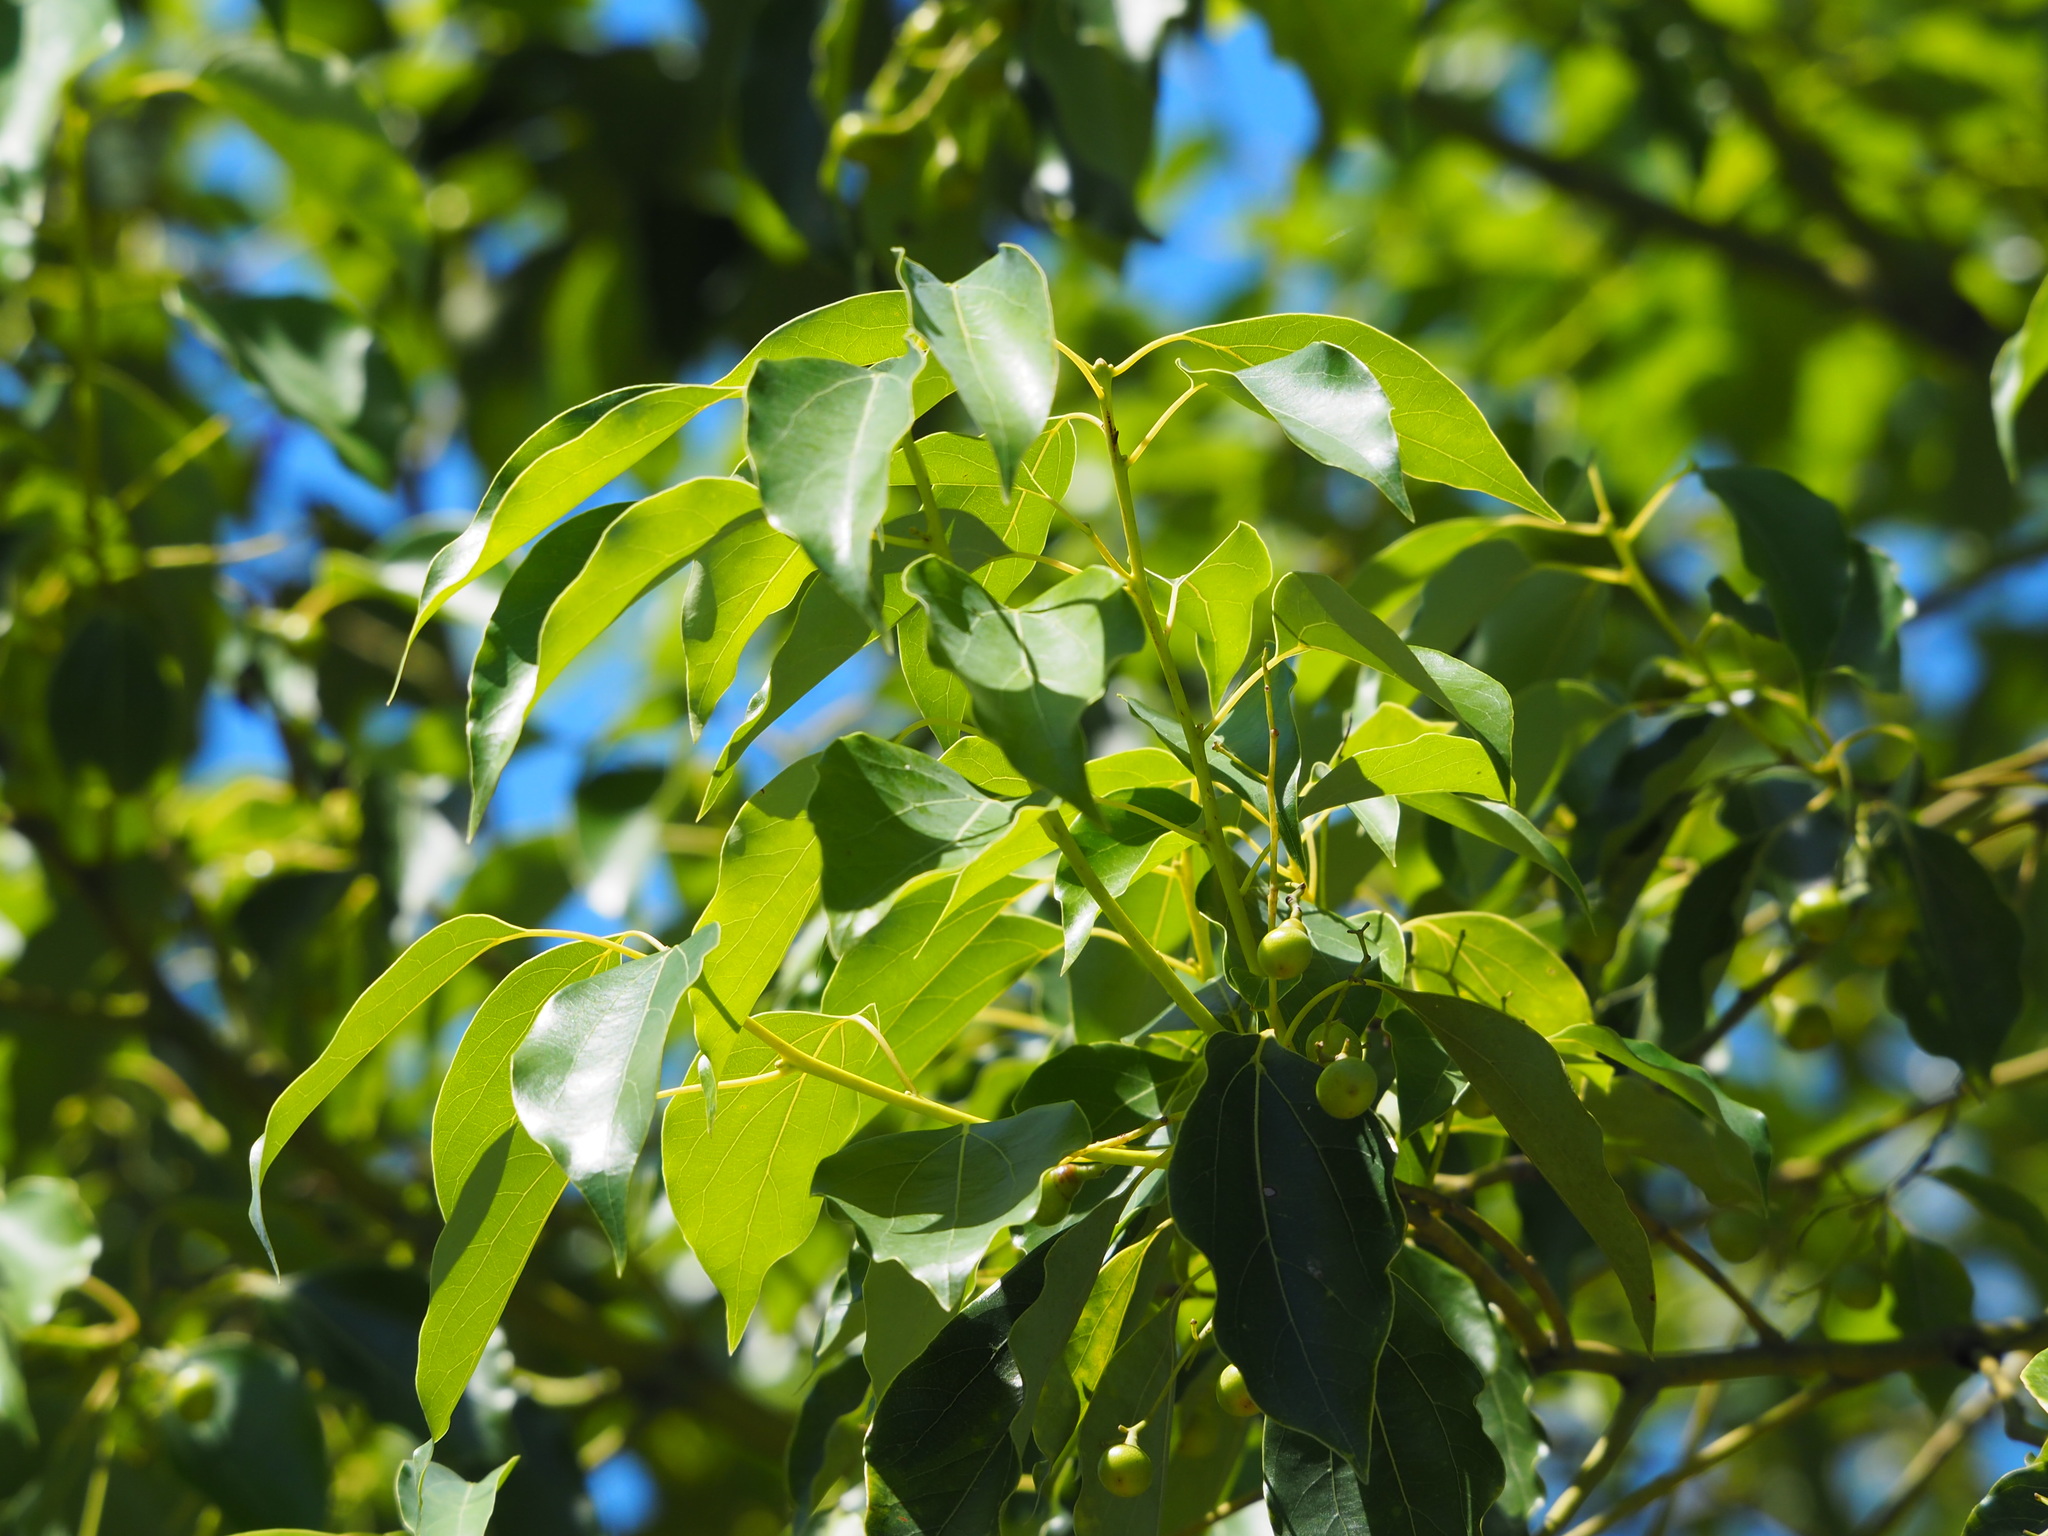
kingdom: Plantae
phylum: Tracheophyta
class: Magnoliopsida
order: Laurales
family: Lauraceae
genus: Cinnamomum
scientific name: Cinnamomum camphora
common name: Camphortree
